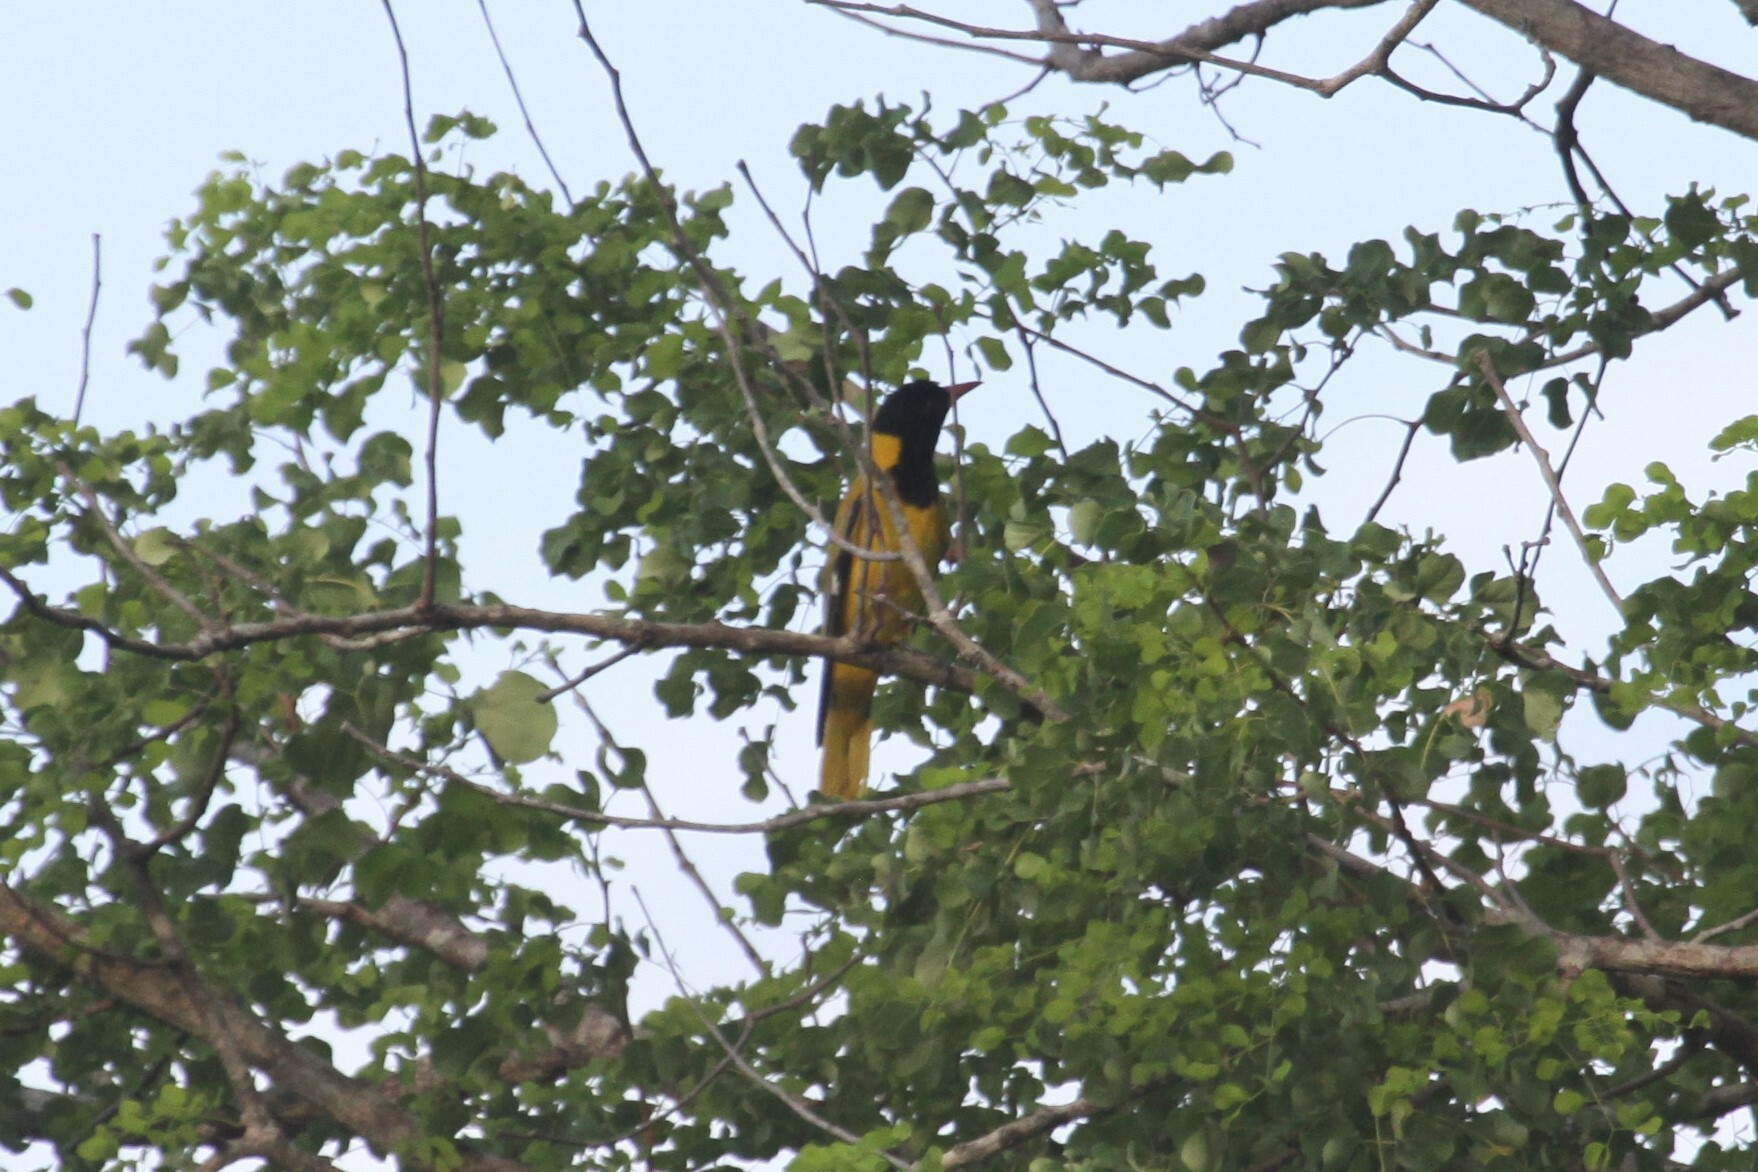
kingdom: Animalia
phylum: Chordata
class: Aves
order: Passeriformes
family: Oriolidae
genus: Oriolus
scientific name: Oriolus larvatus
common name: Black-headed oriole
